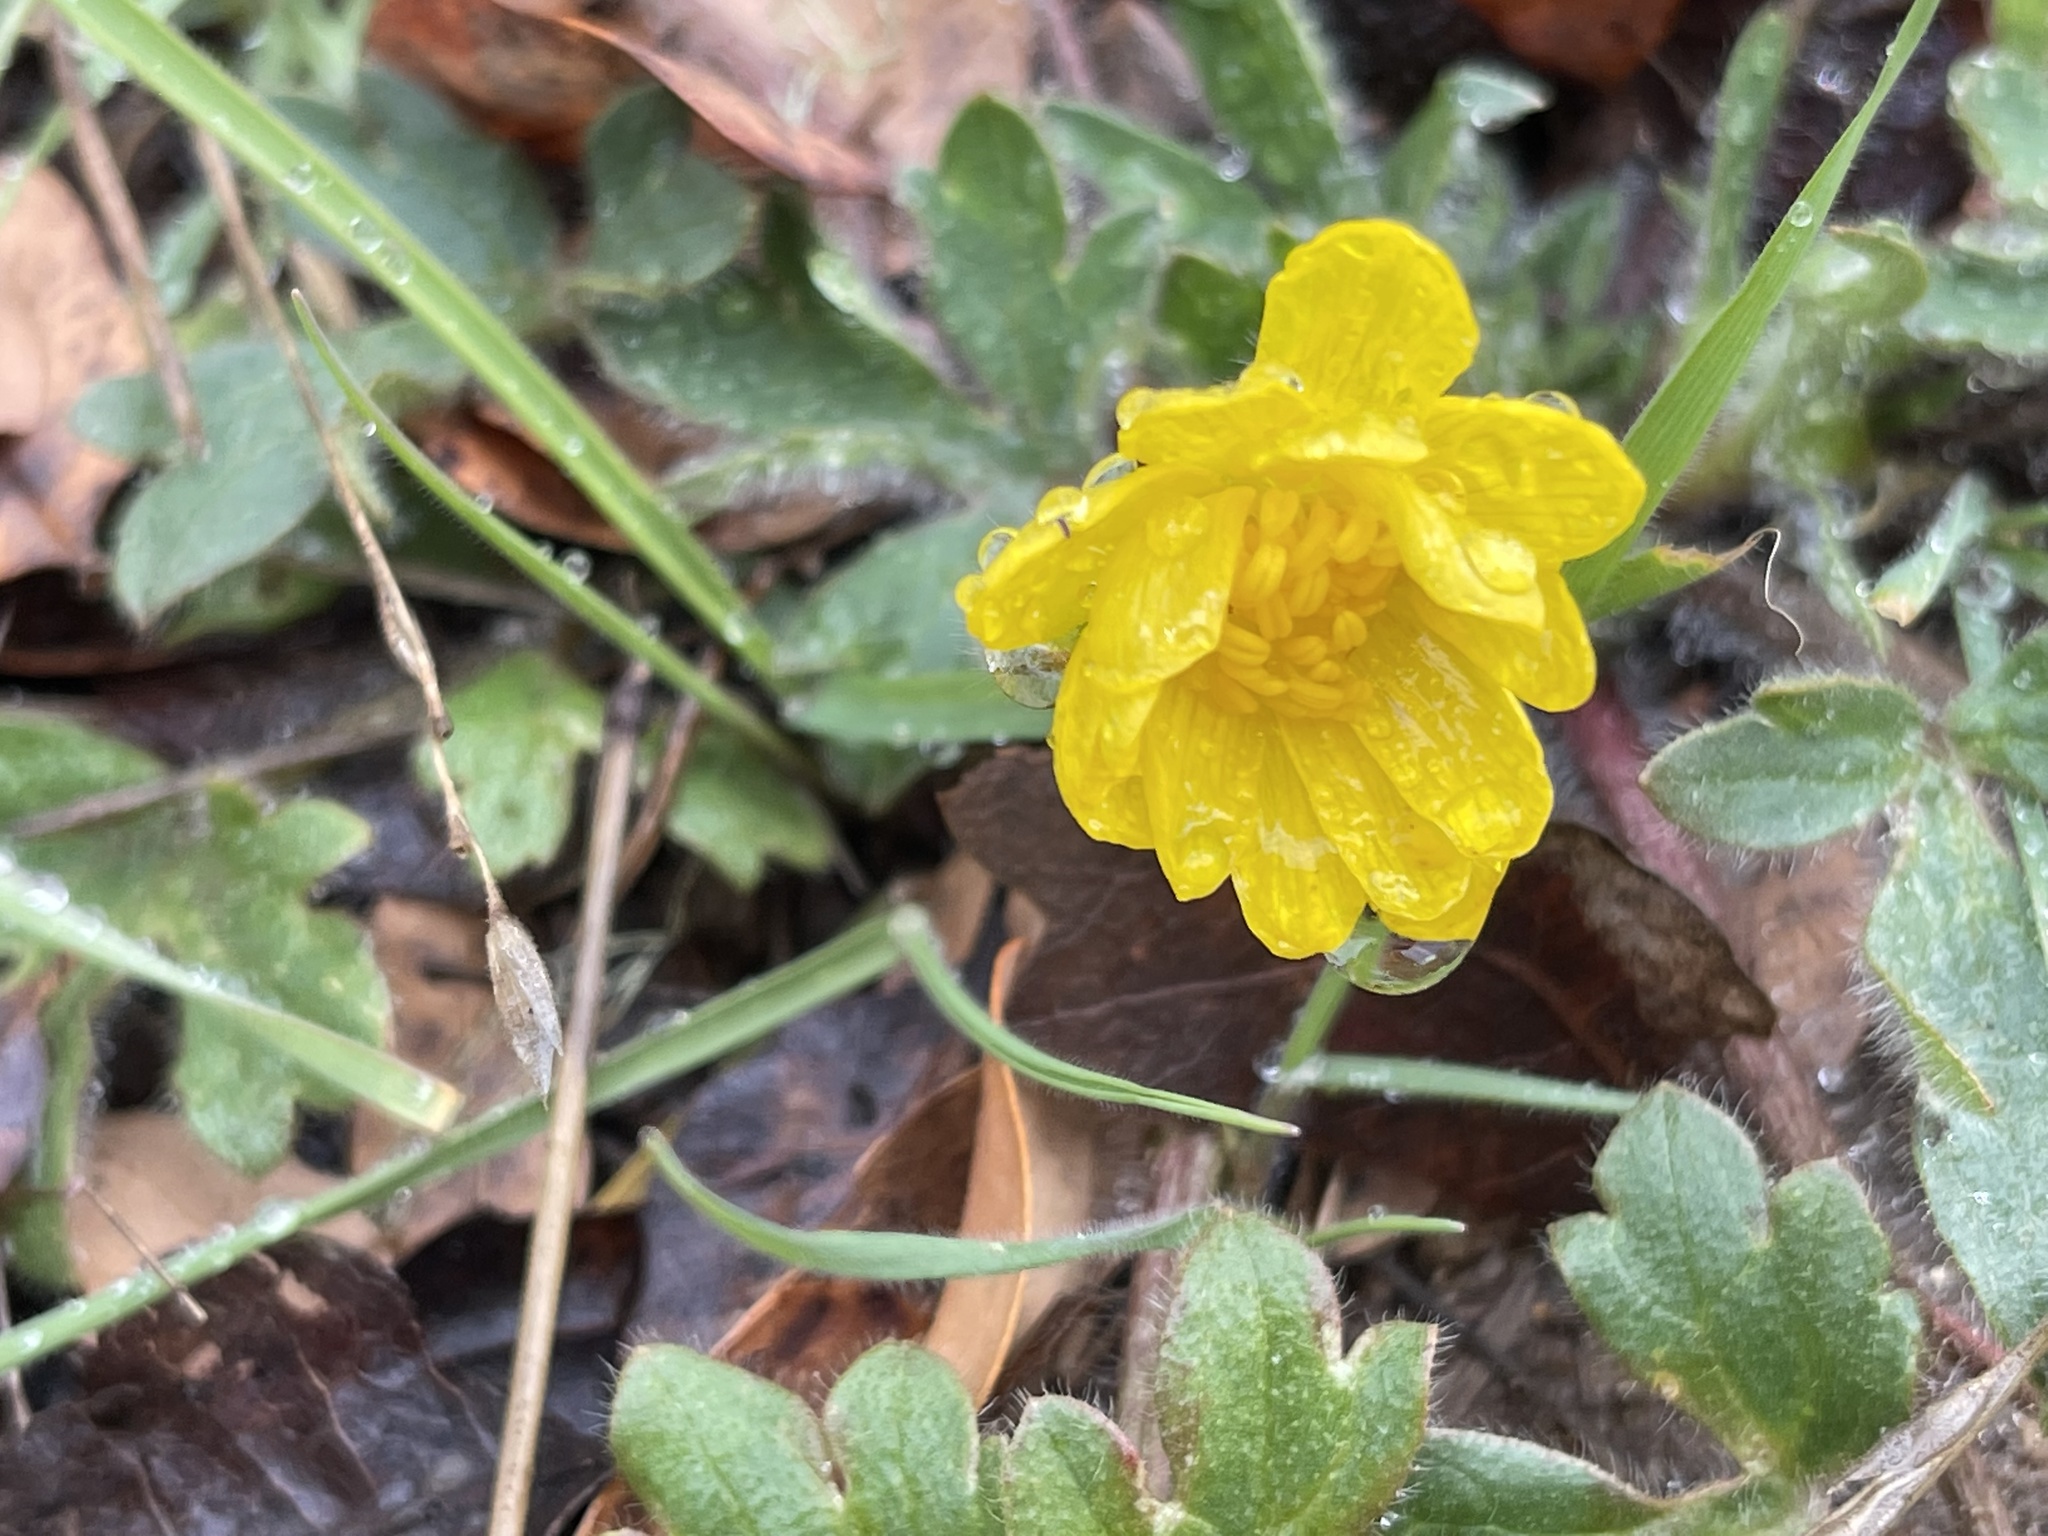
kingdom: Plantae
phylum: Tracheophyta
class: Magnoliopsida
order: Ranunculales
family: Ranunculaceae
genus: Ranunculus
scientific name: Ranunculus californicus
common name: California buttercup
